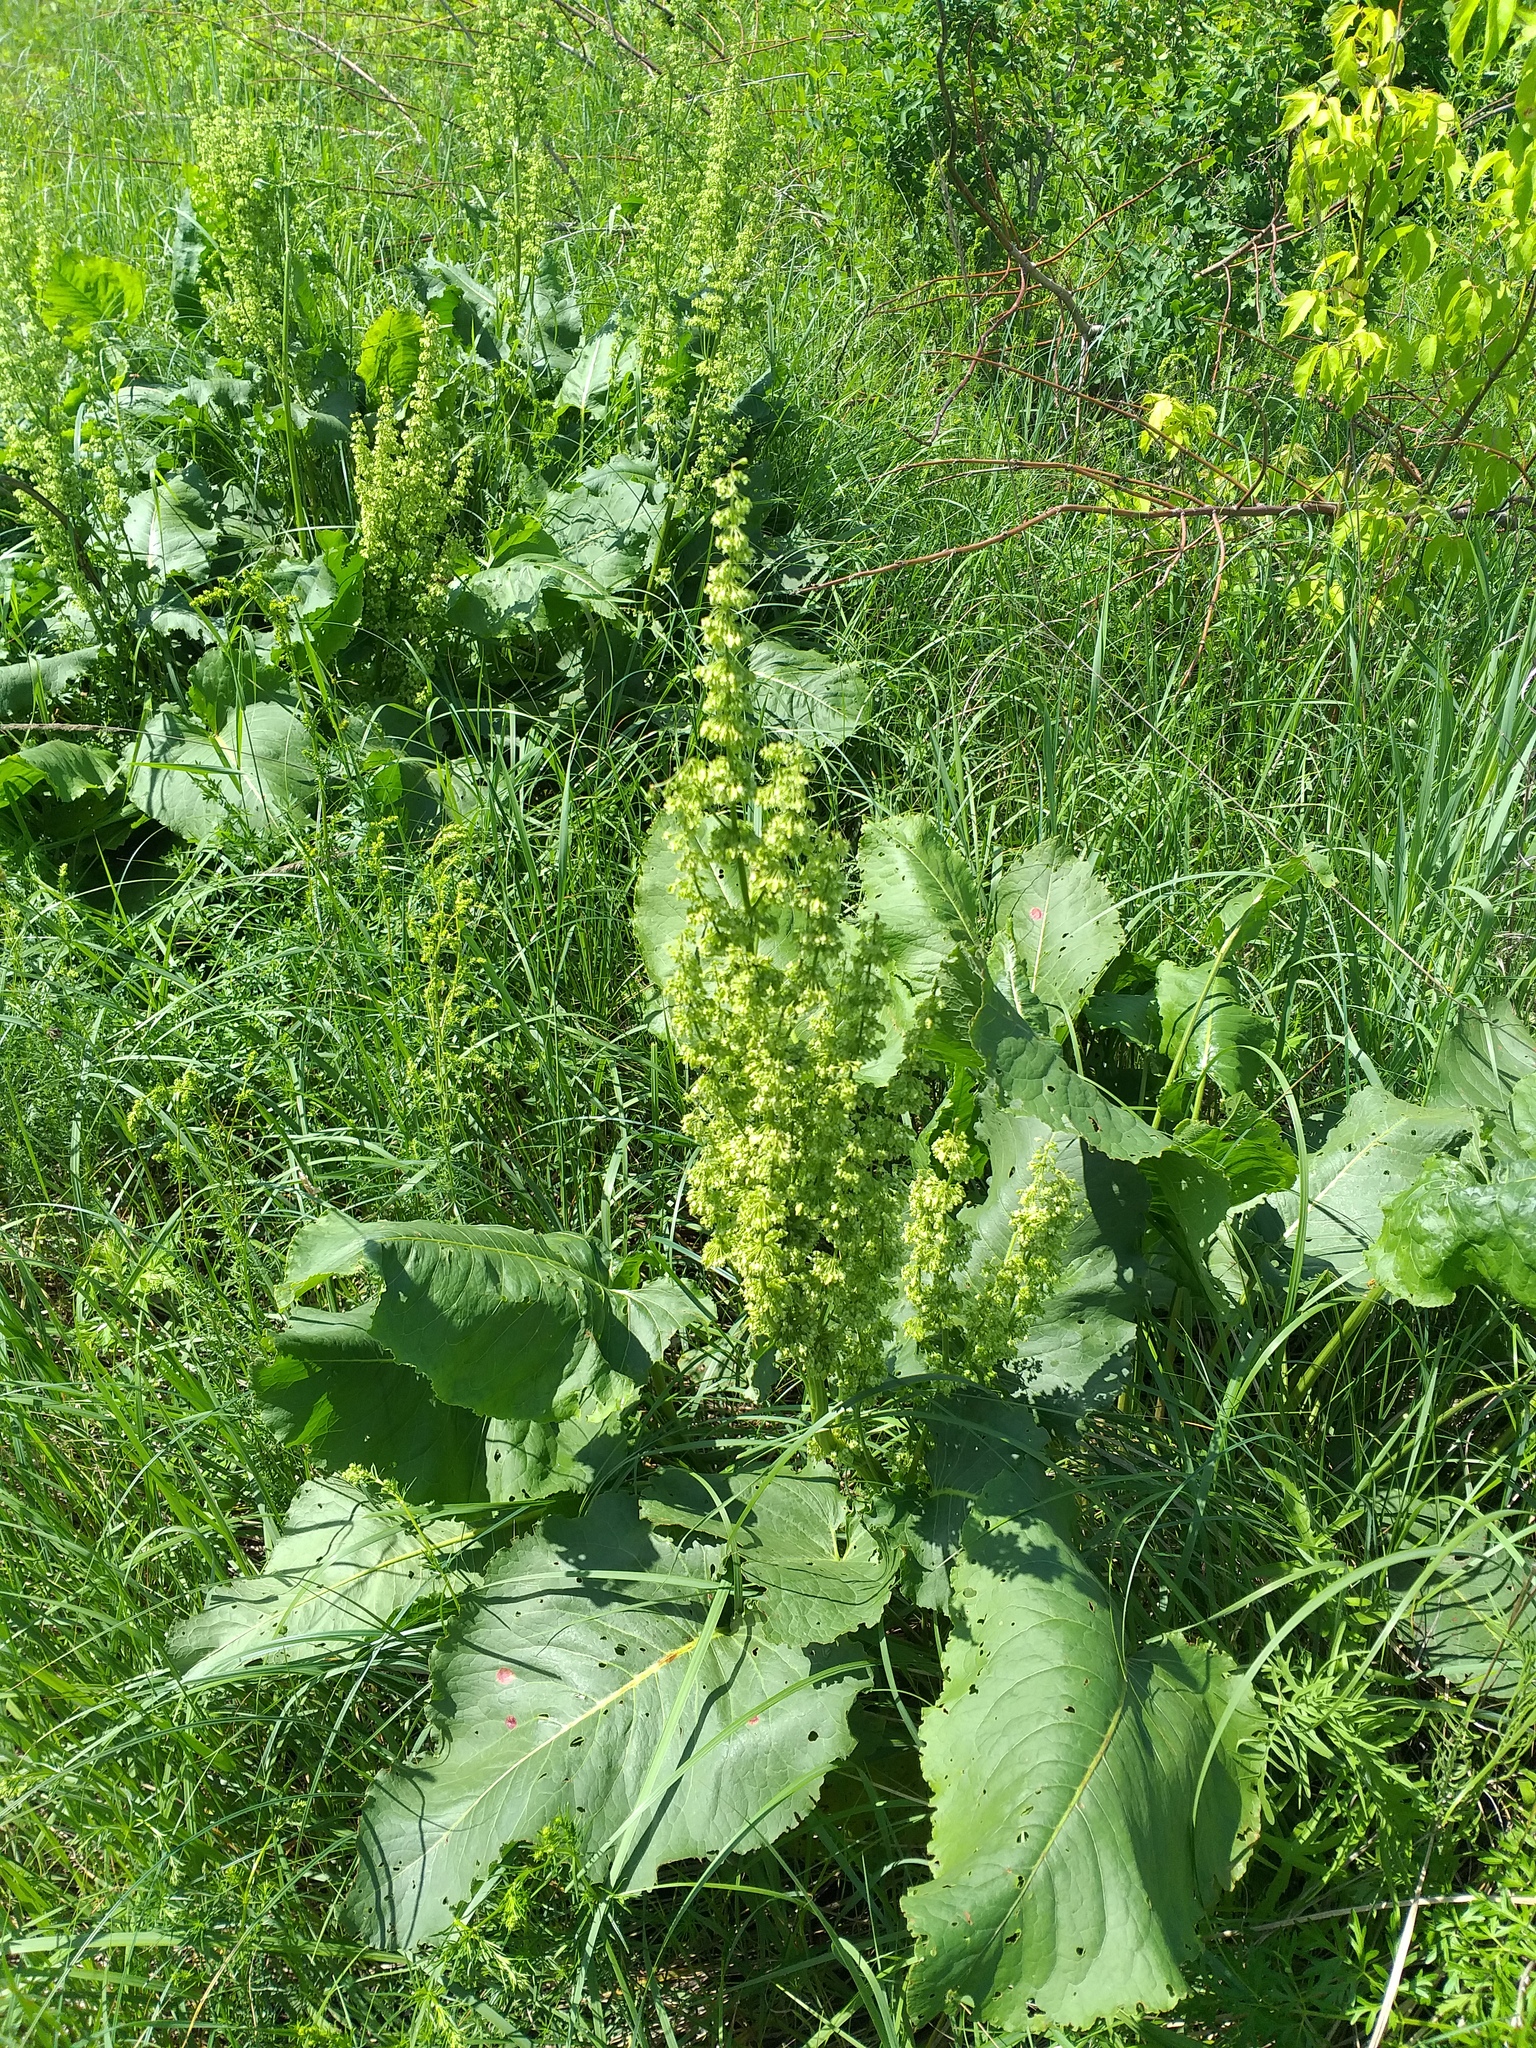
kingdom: Plantae
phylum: Tracheophyta
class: Magnoliopsida
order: Caryophyllales
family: Polygonaceae
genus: Rumex
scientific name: Rumex confertus
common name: Russian dock
